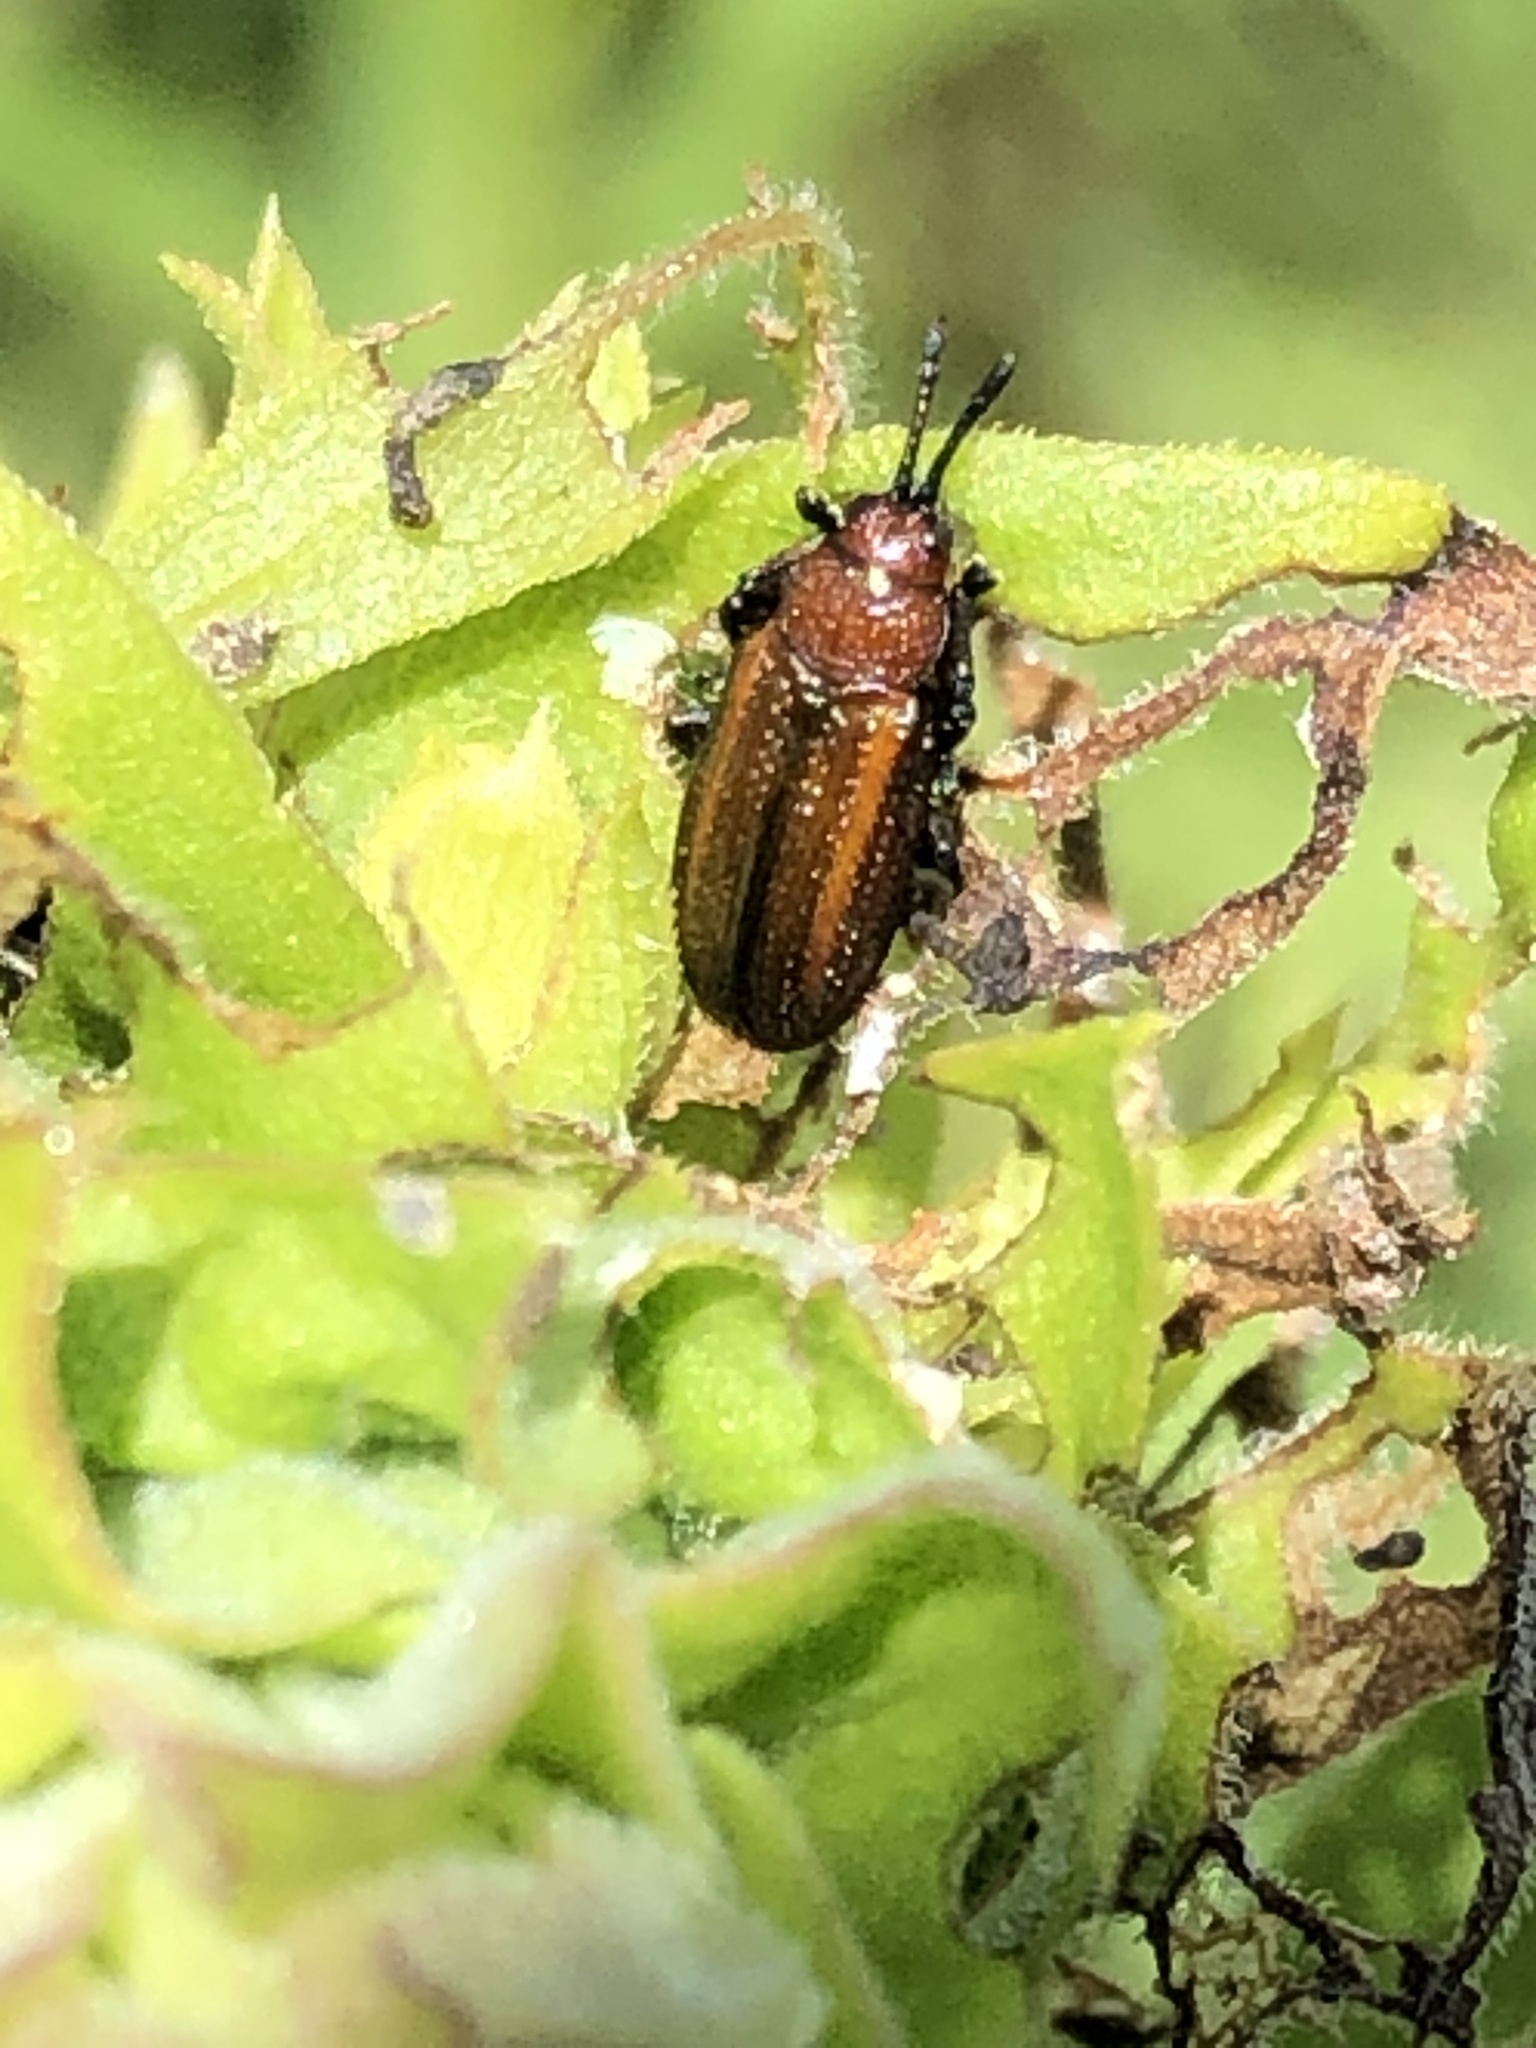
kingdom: Animalia
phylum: Arthropoda
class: Insecta
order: Coleoptera
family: Chrysomelidae
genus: Microrhopala
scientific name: Microrhopala vittata
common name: Goldenrod leaf miner beetle
